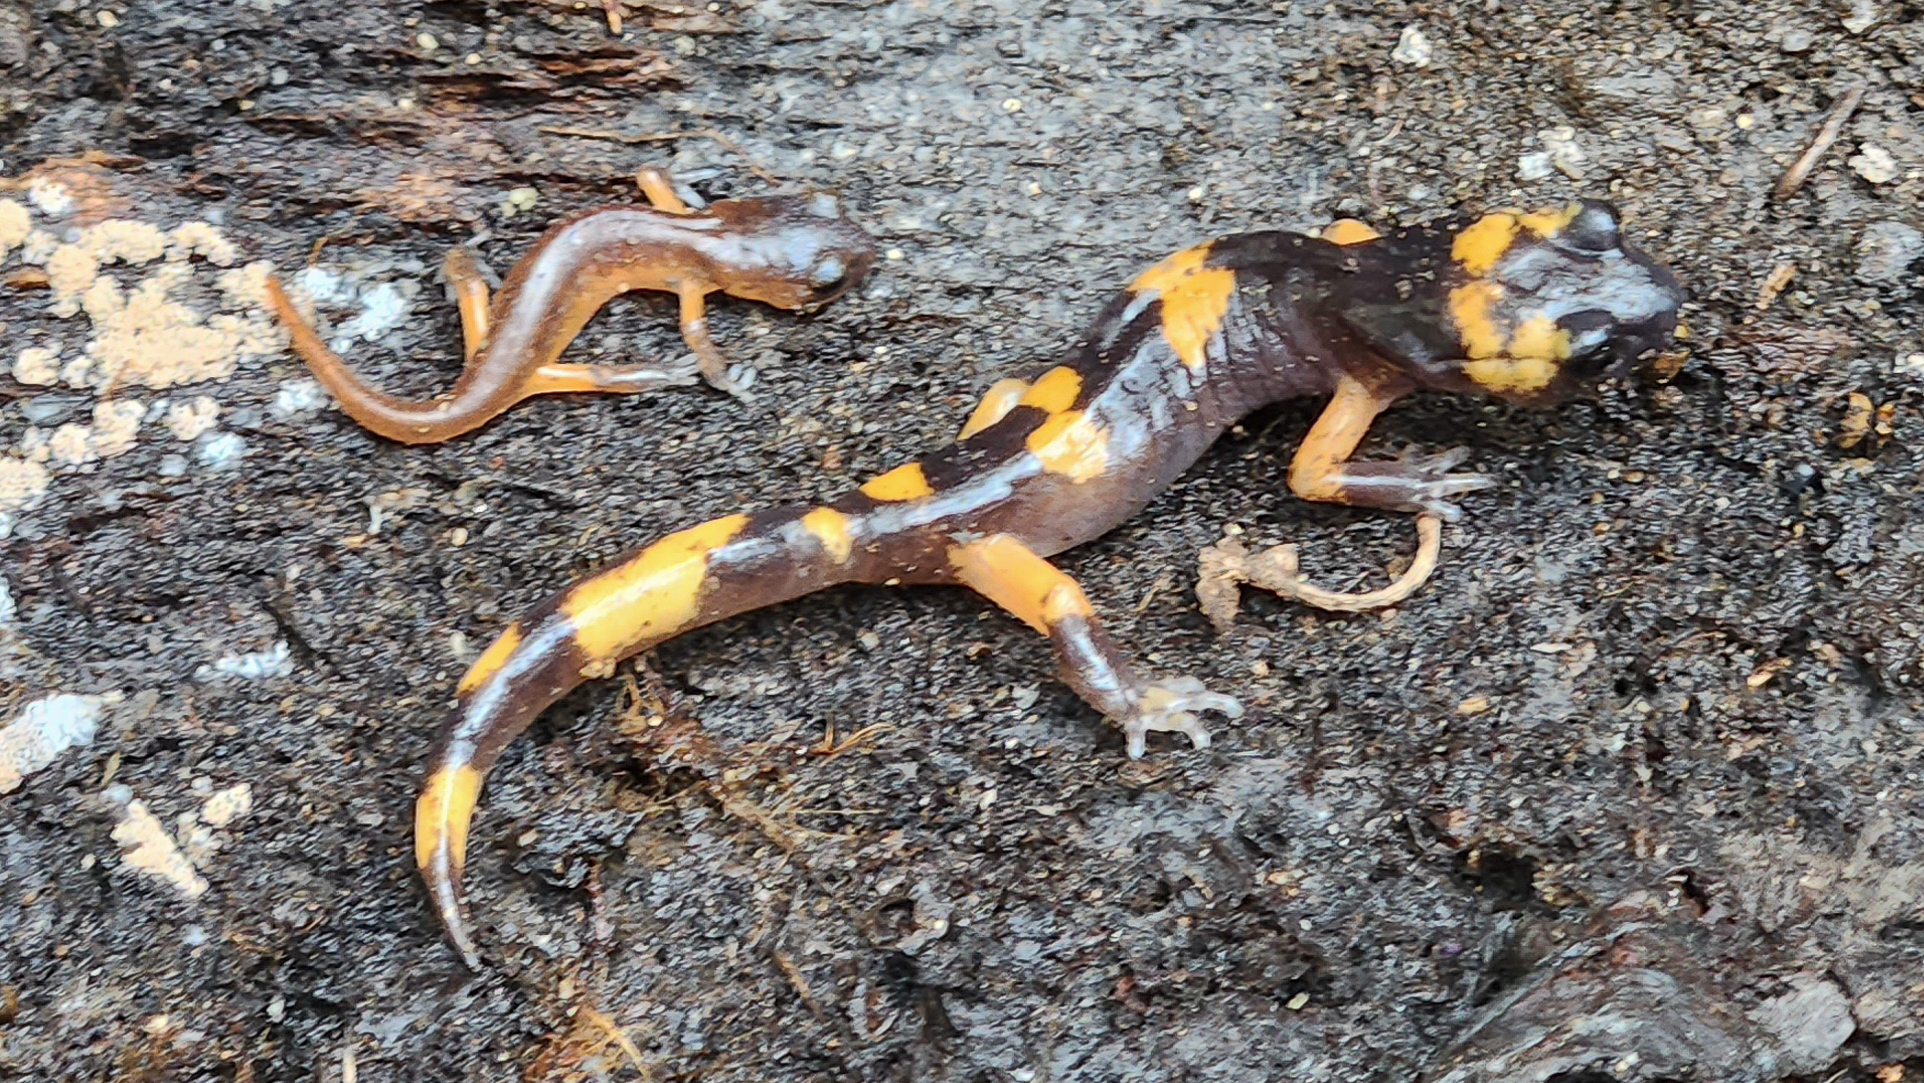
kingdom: Animalia
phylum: Chordata
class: Amphibia
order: Caudata
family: Plethodontidae
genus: Ensatina
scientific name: Ensatina eschscholtzii
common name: Ensatina
